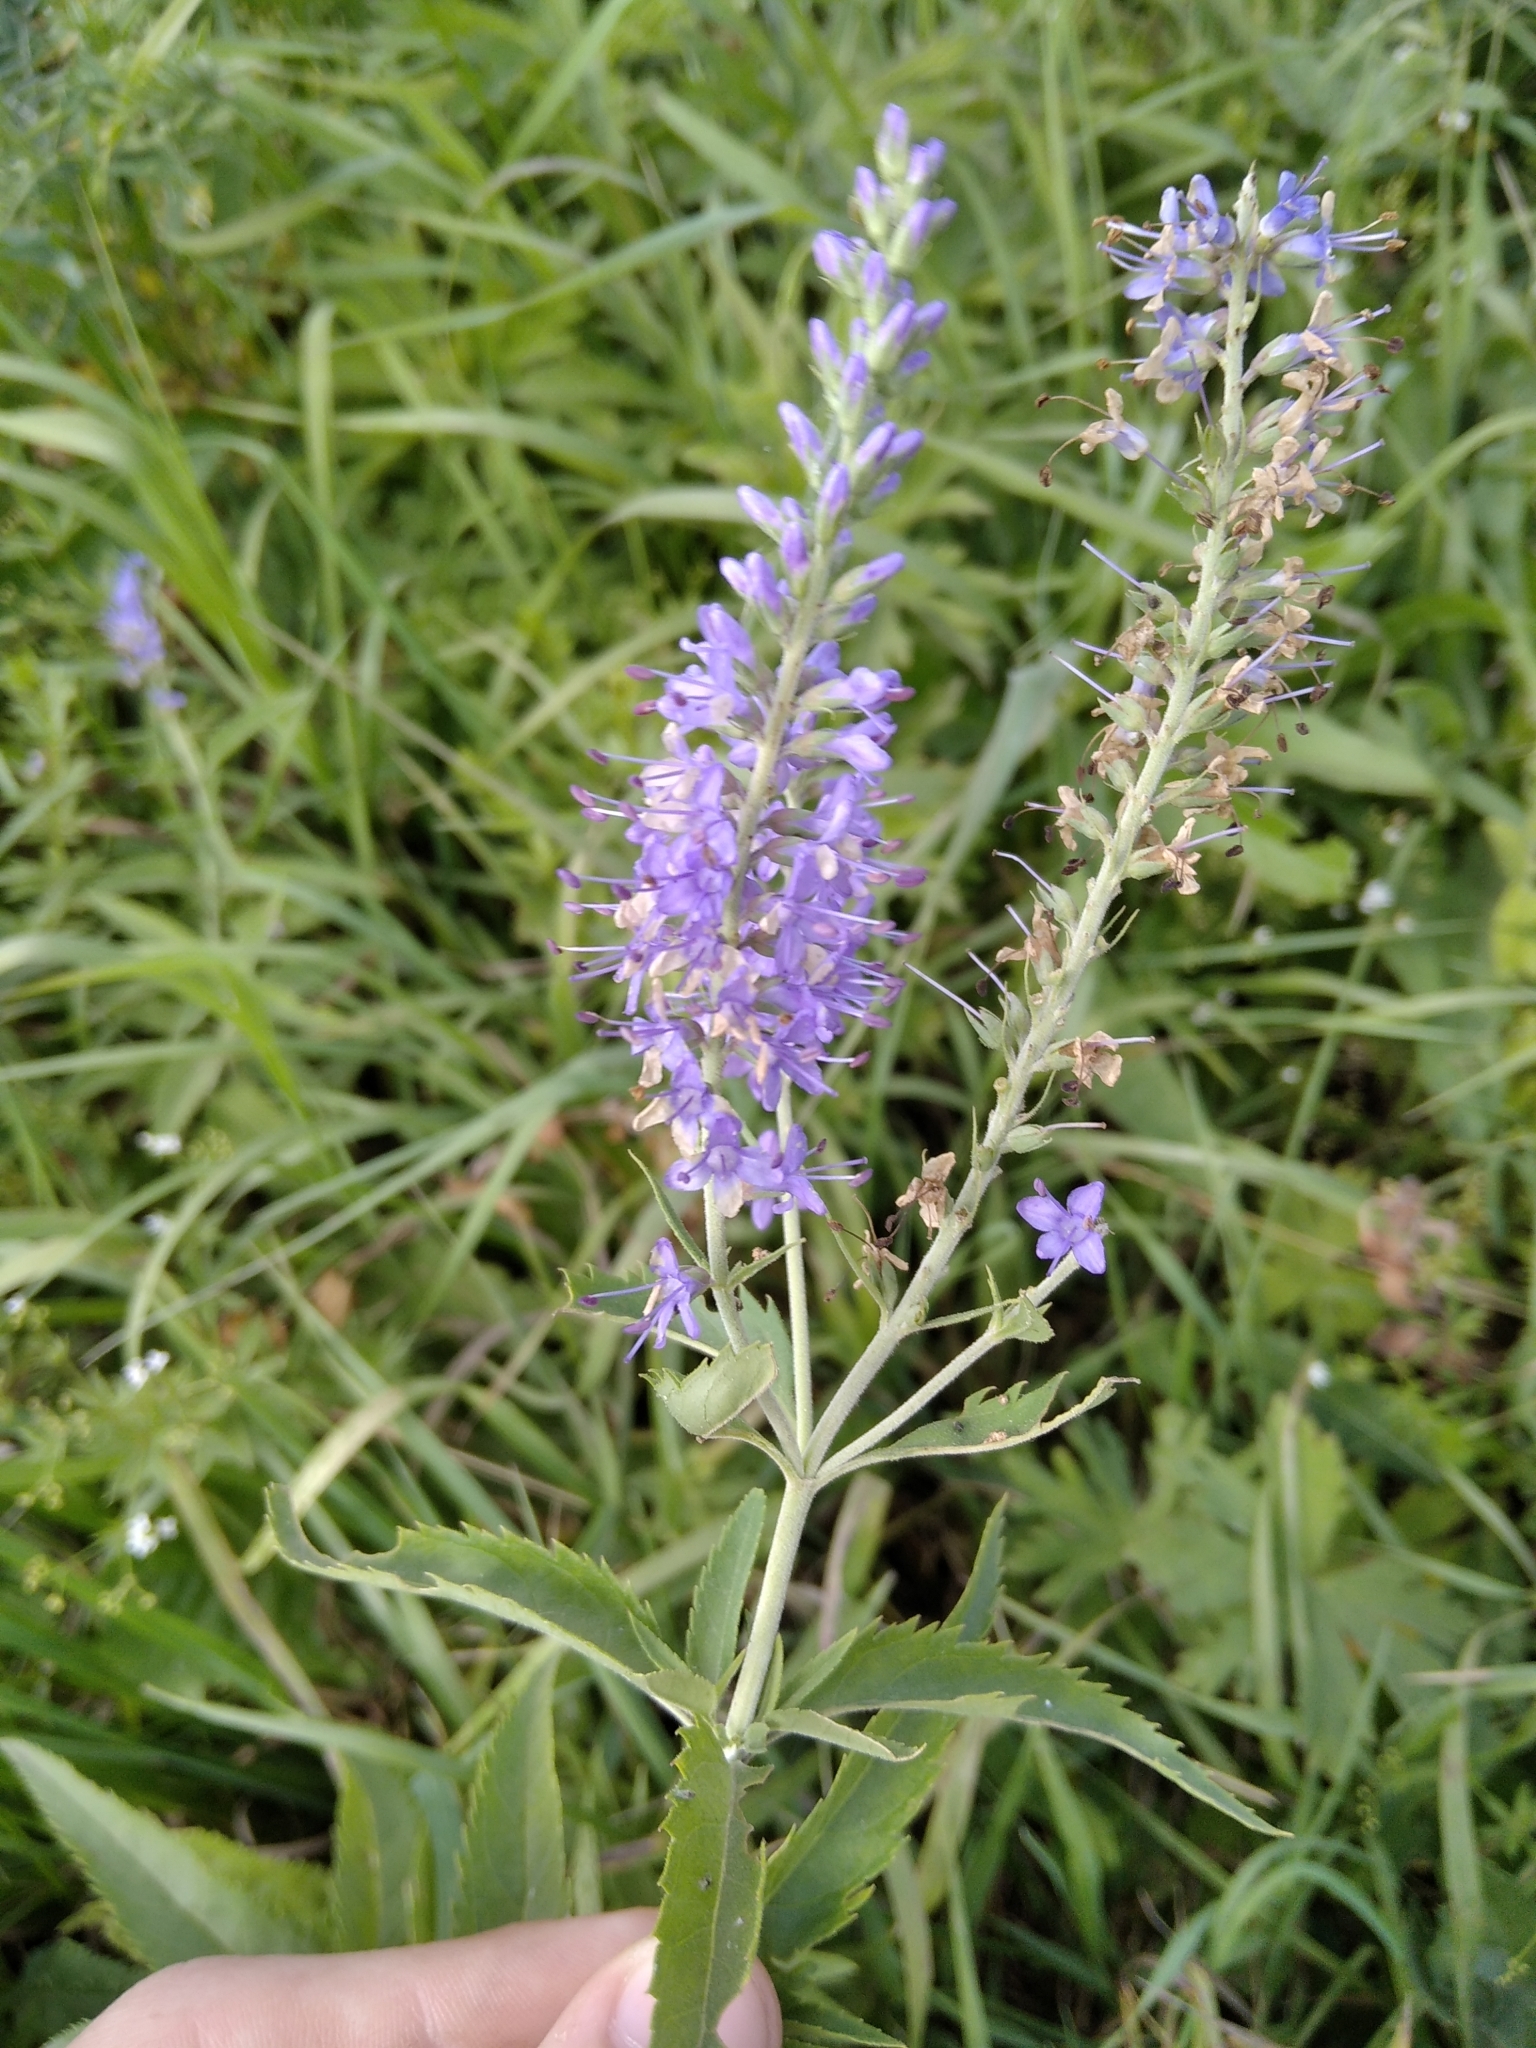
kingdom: Plantae
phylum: Tracheophyta
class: Magnoliopsida
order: Lamiales
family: Plantaginaceae
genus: Veronica
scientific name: Veronica longifolia
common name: Garden speedwell
